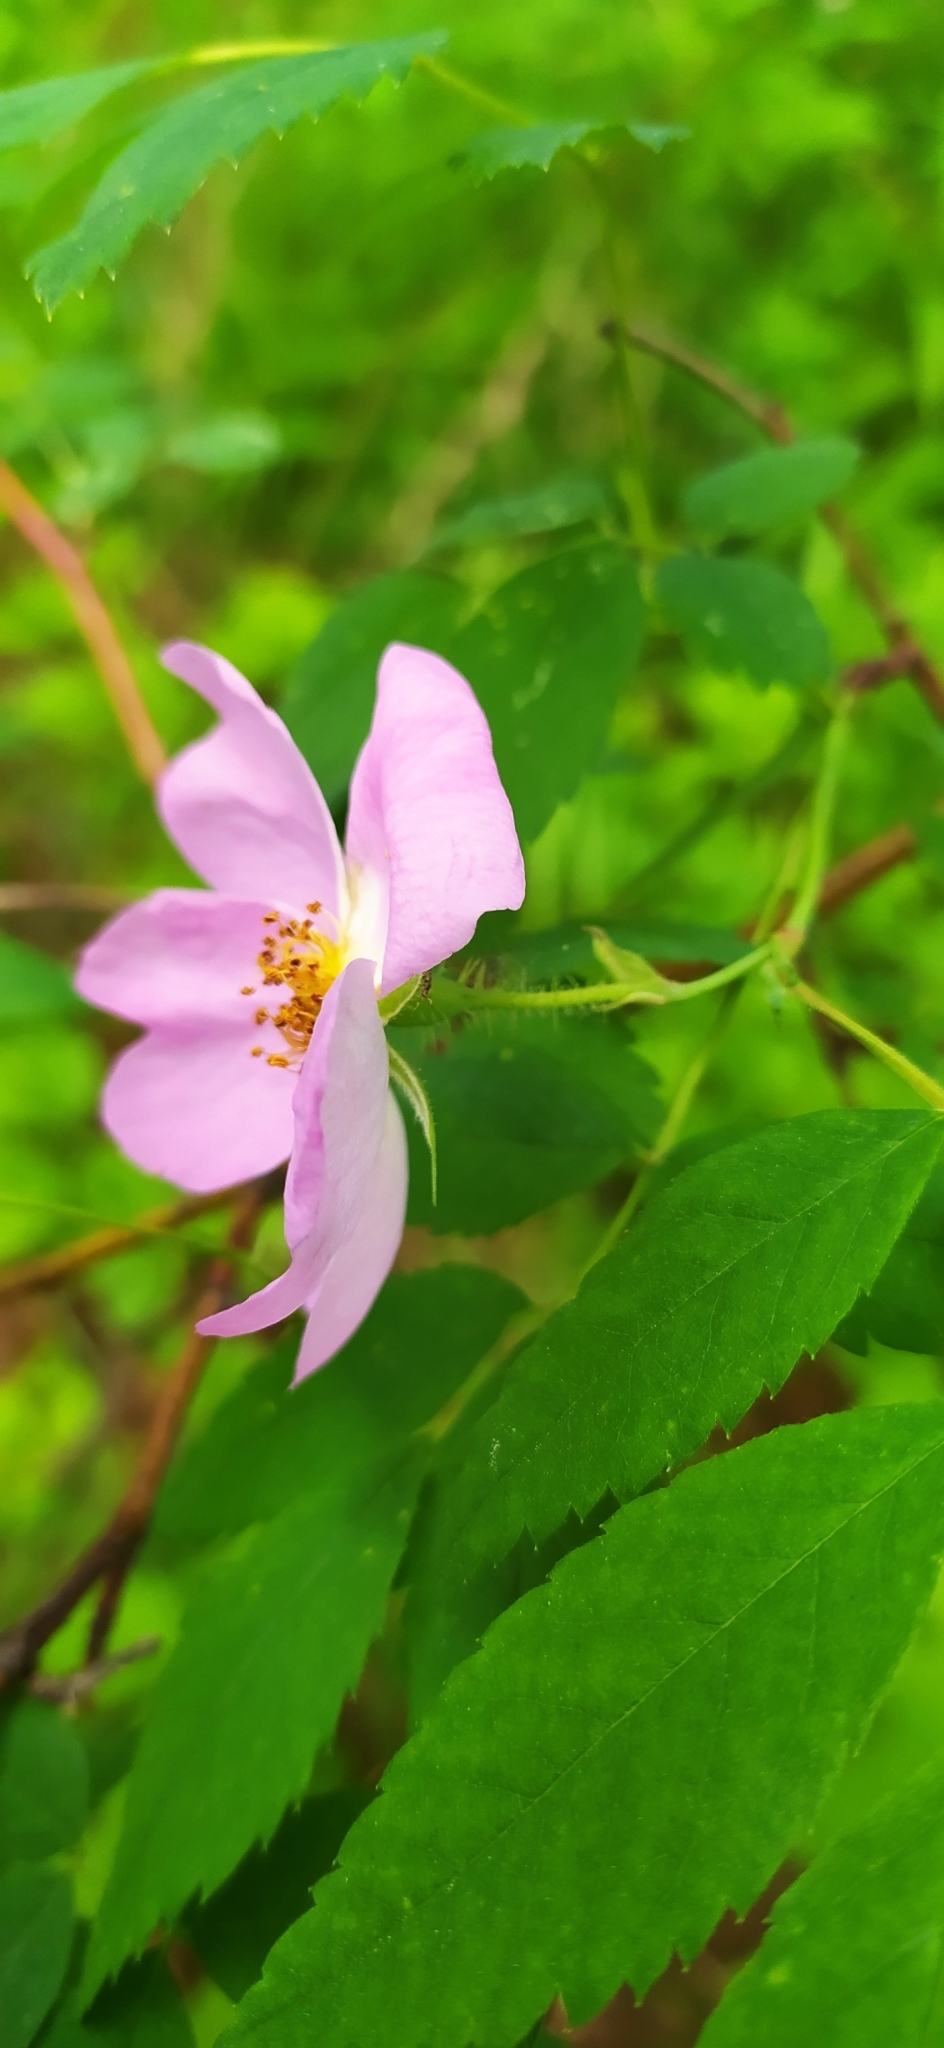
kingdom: Plantae
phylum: Tracheophyta
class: Magnoliopsida
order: Rosales
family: Rosaceae
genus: Rosa
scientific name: Rosa acicularis
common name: Prickly rose
